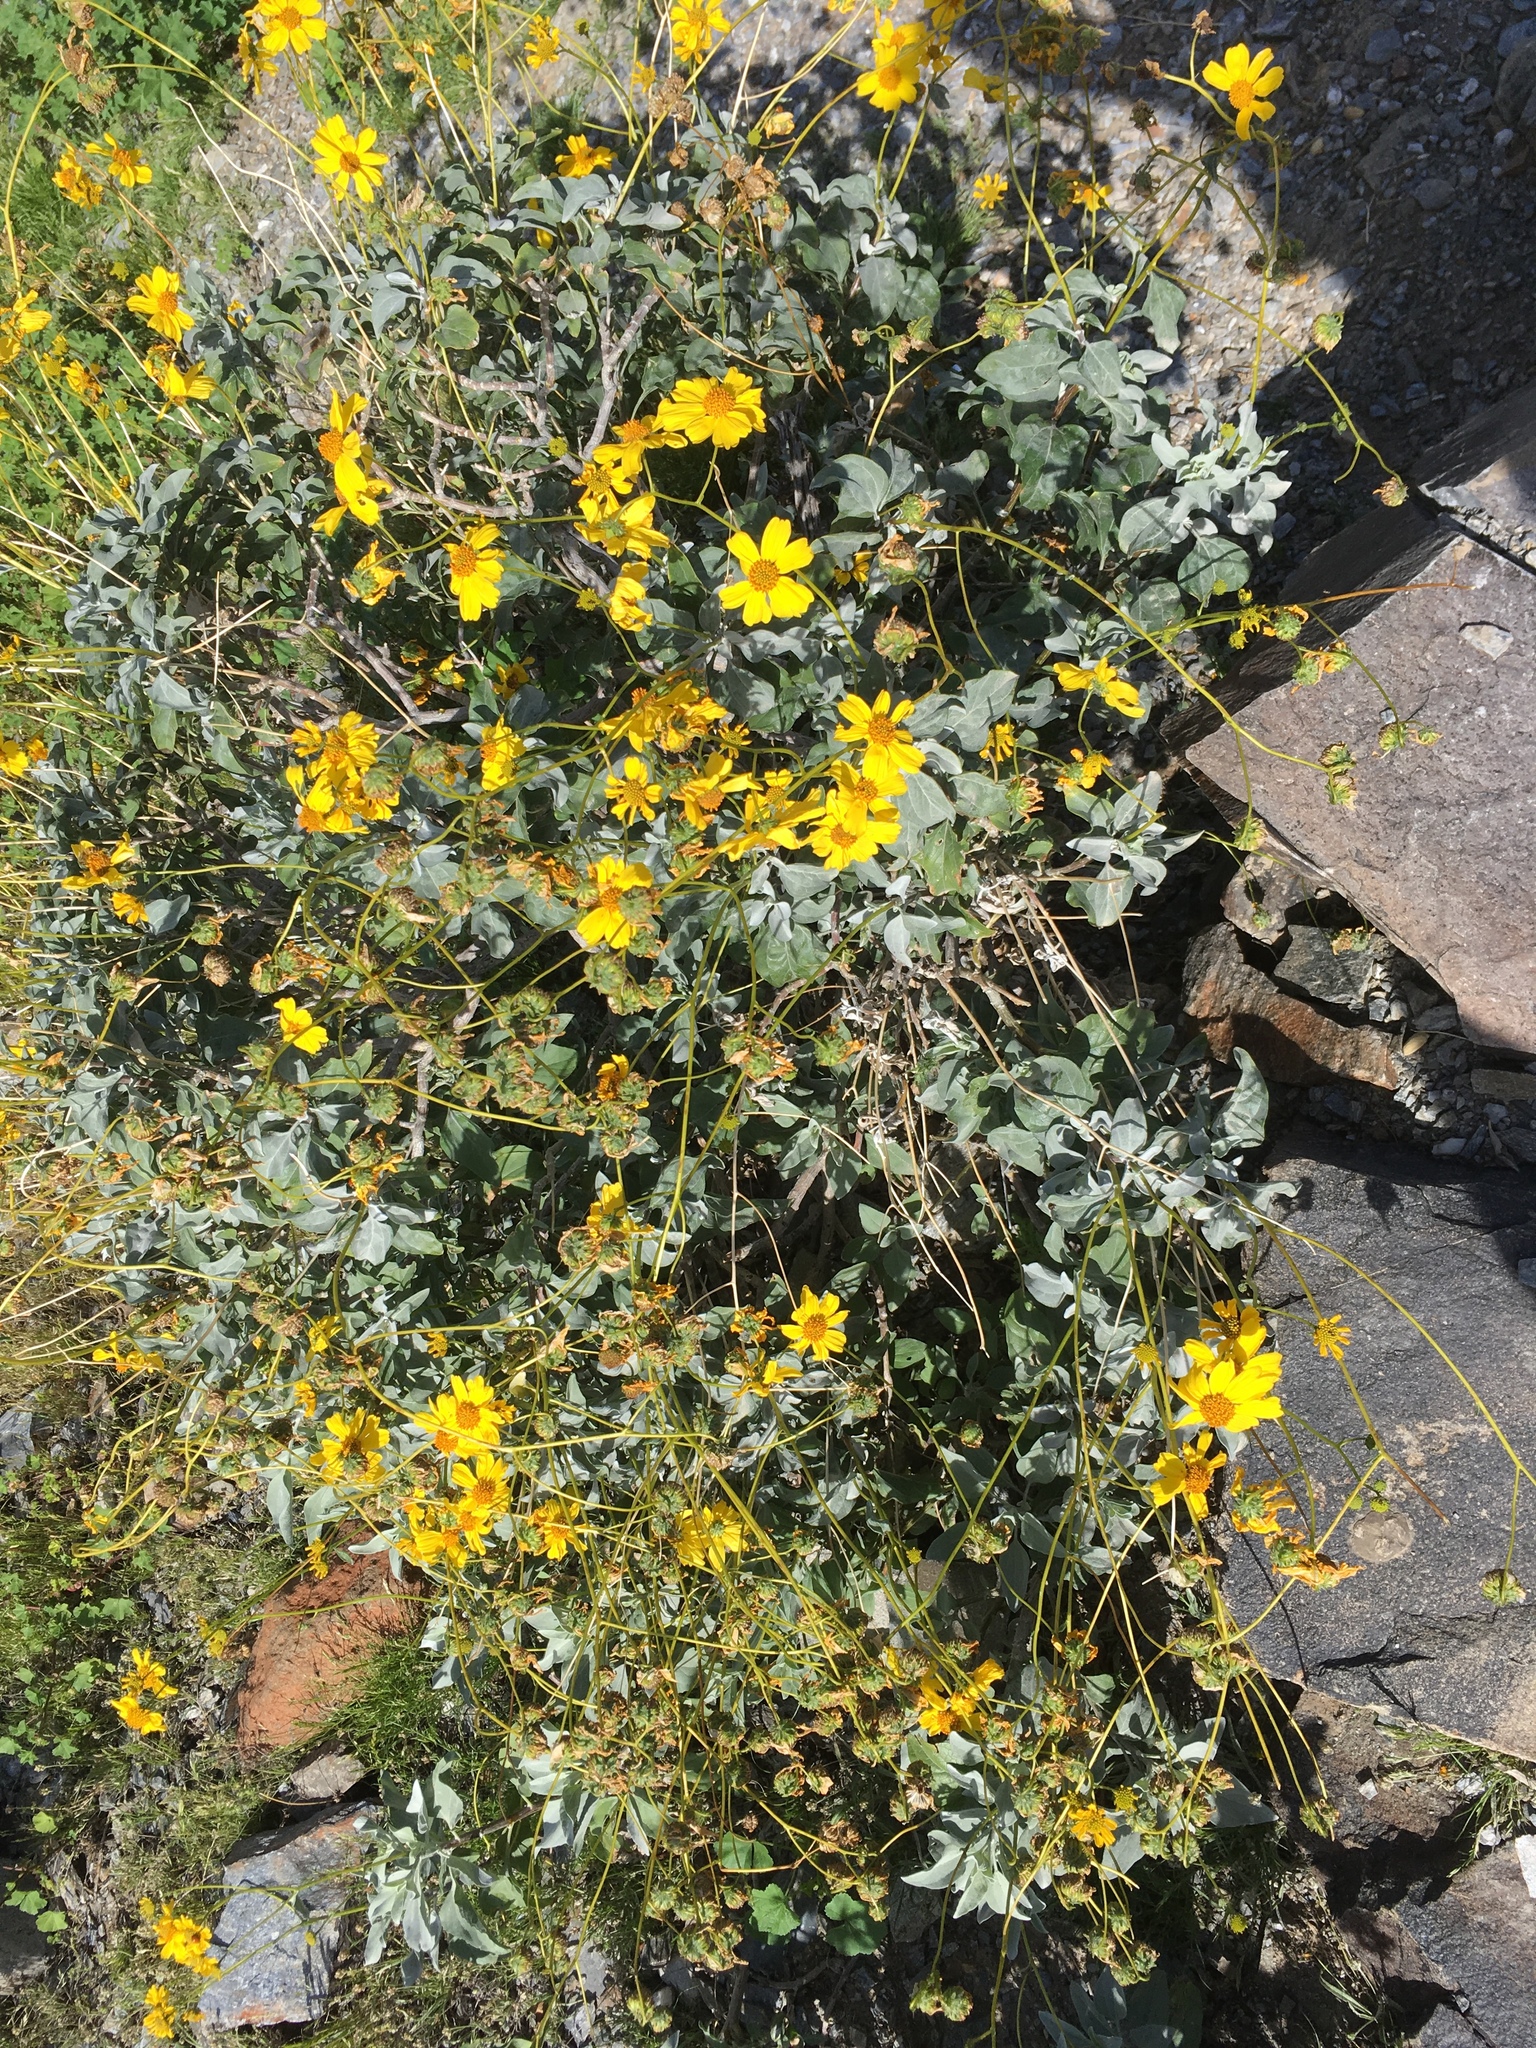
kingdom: Plantae
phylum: Tracheophyta
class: Magnoliopsida
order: Asterales
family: Asteraceae
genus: Encelia
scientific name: Encelia farinosa
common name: Brittlebush
